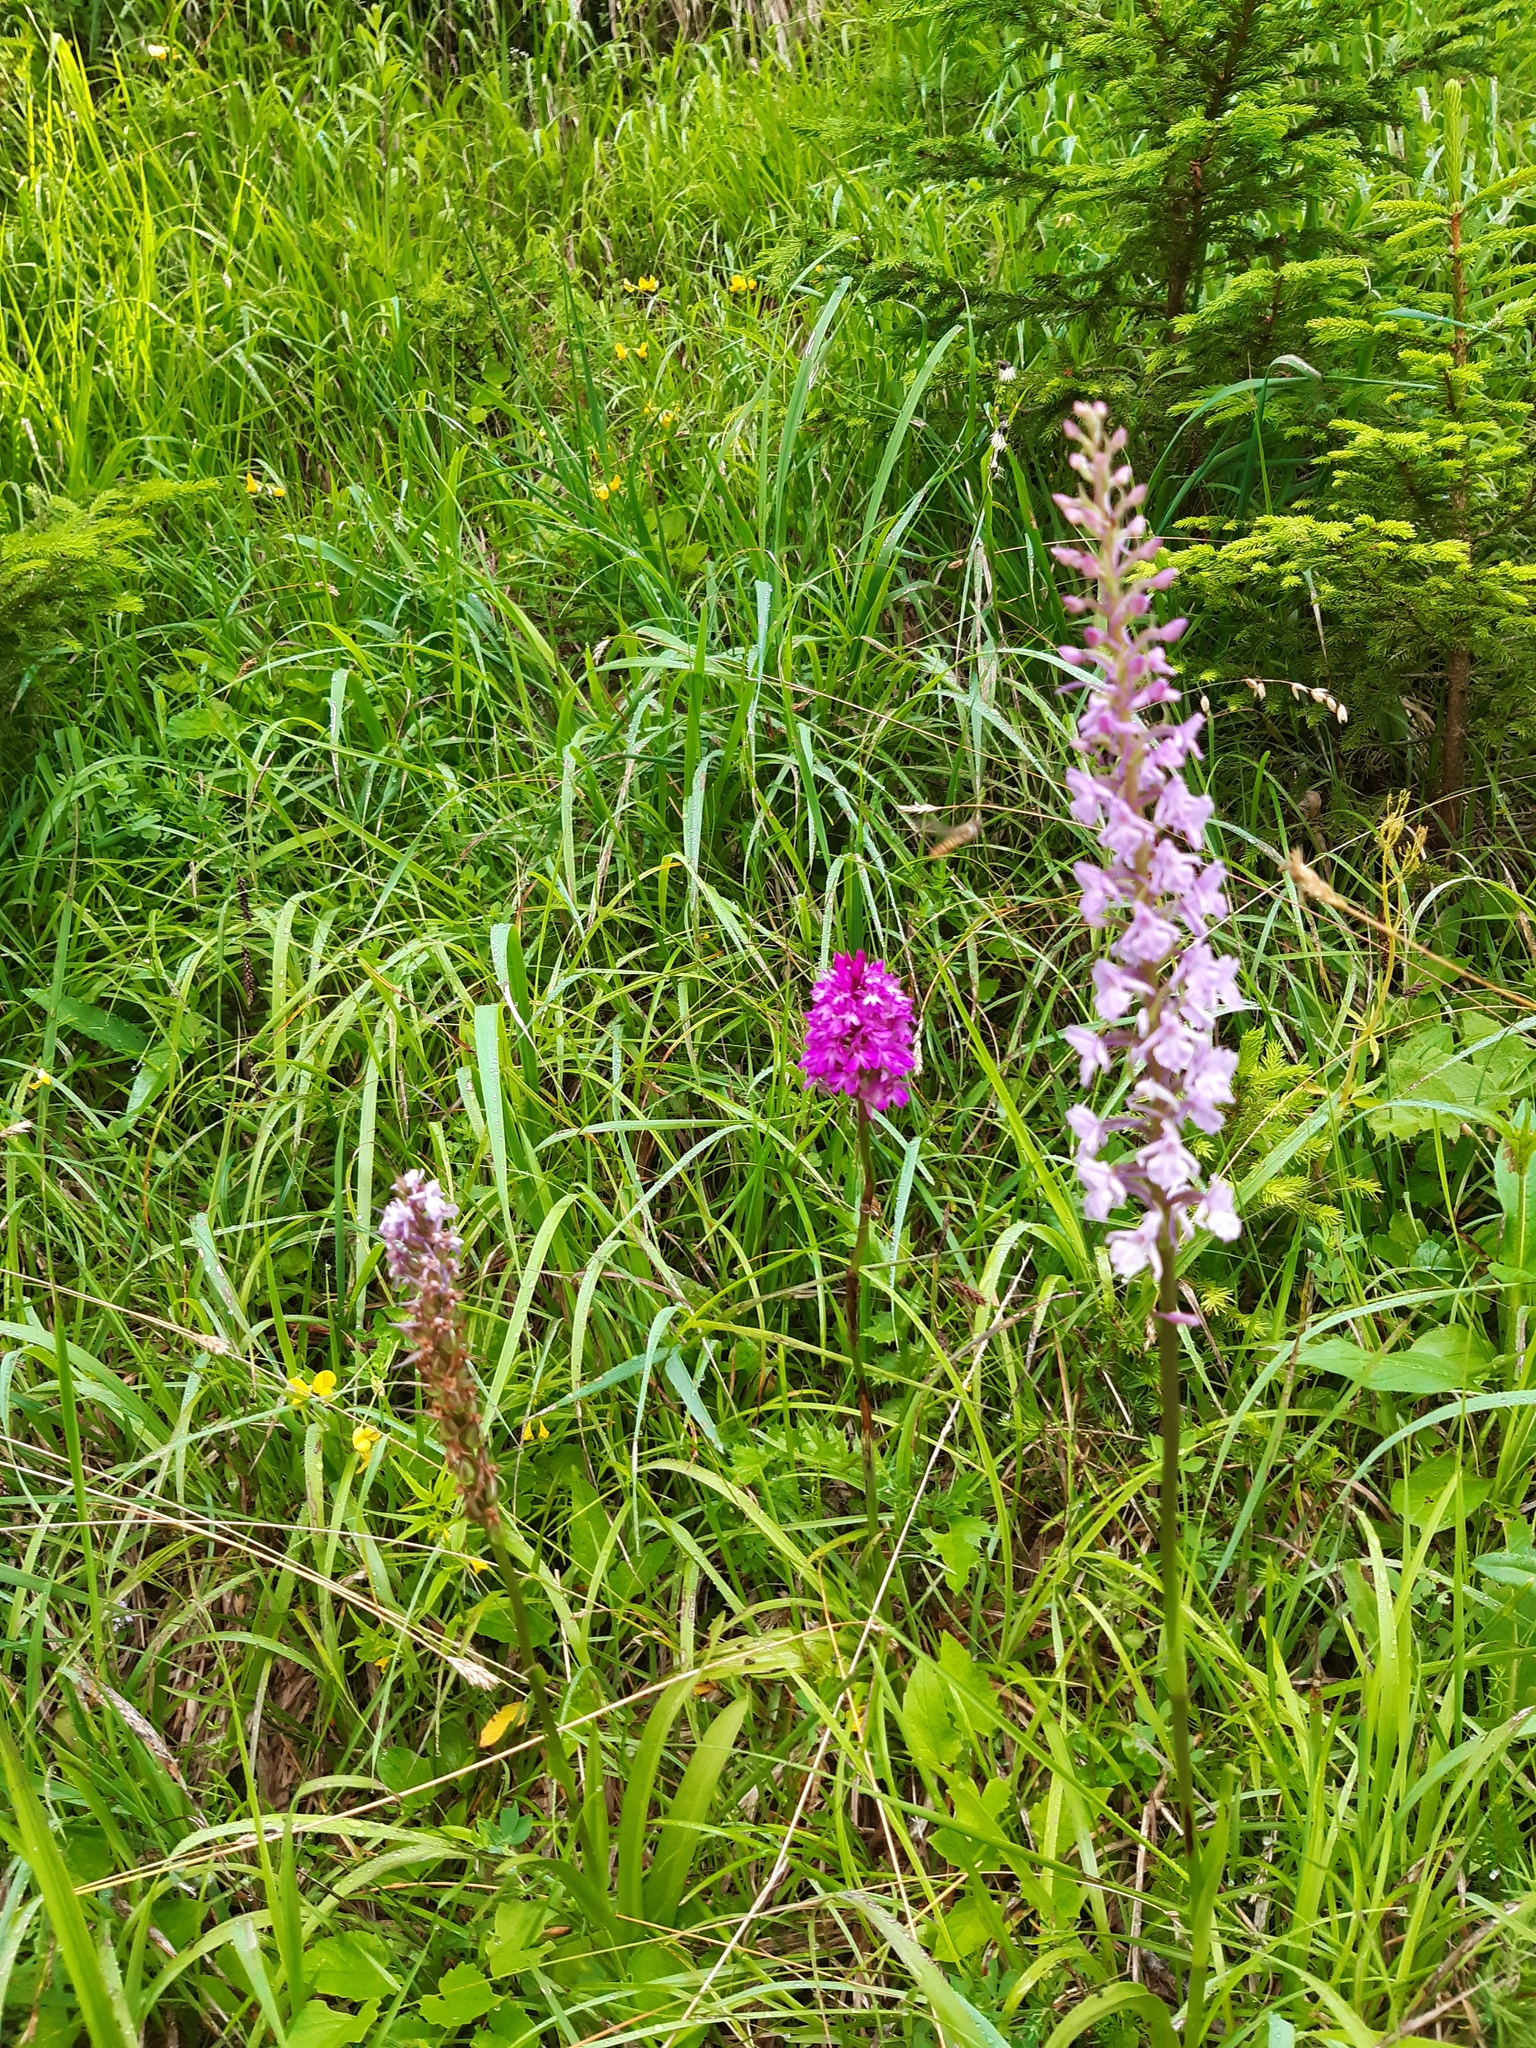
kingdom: Plantae
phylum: Tracheophyta
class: Liliopsida
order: Asparagales
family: Orchidaceae
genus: Anacamptis
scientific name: Anacamptis pyramidalis
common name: Pyramidal orchid
